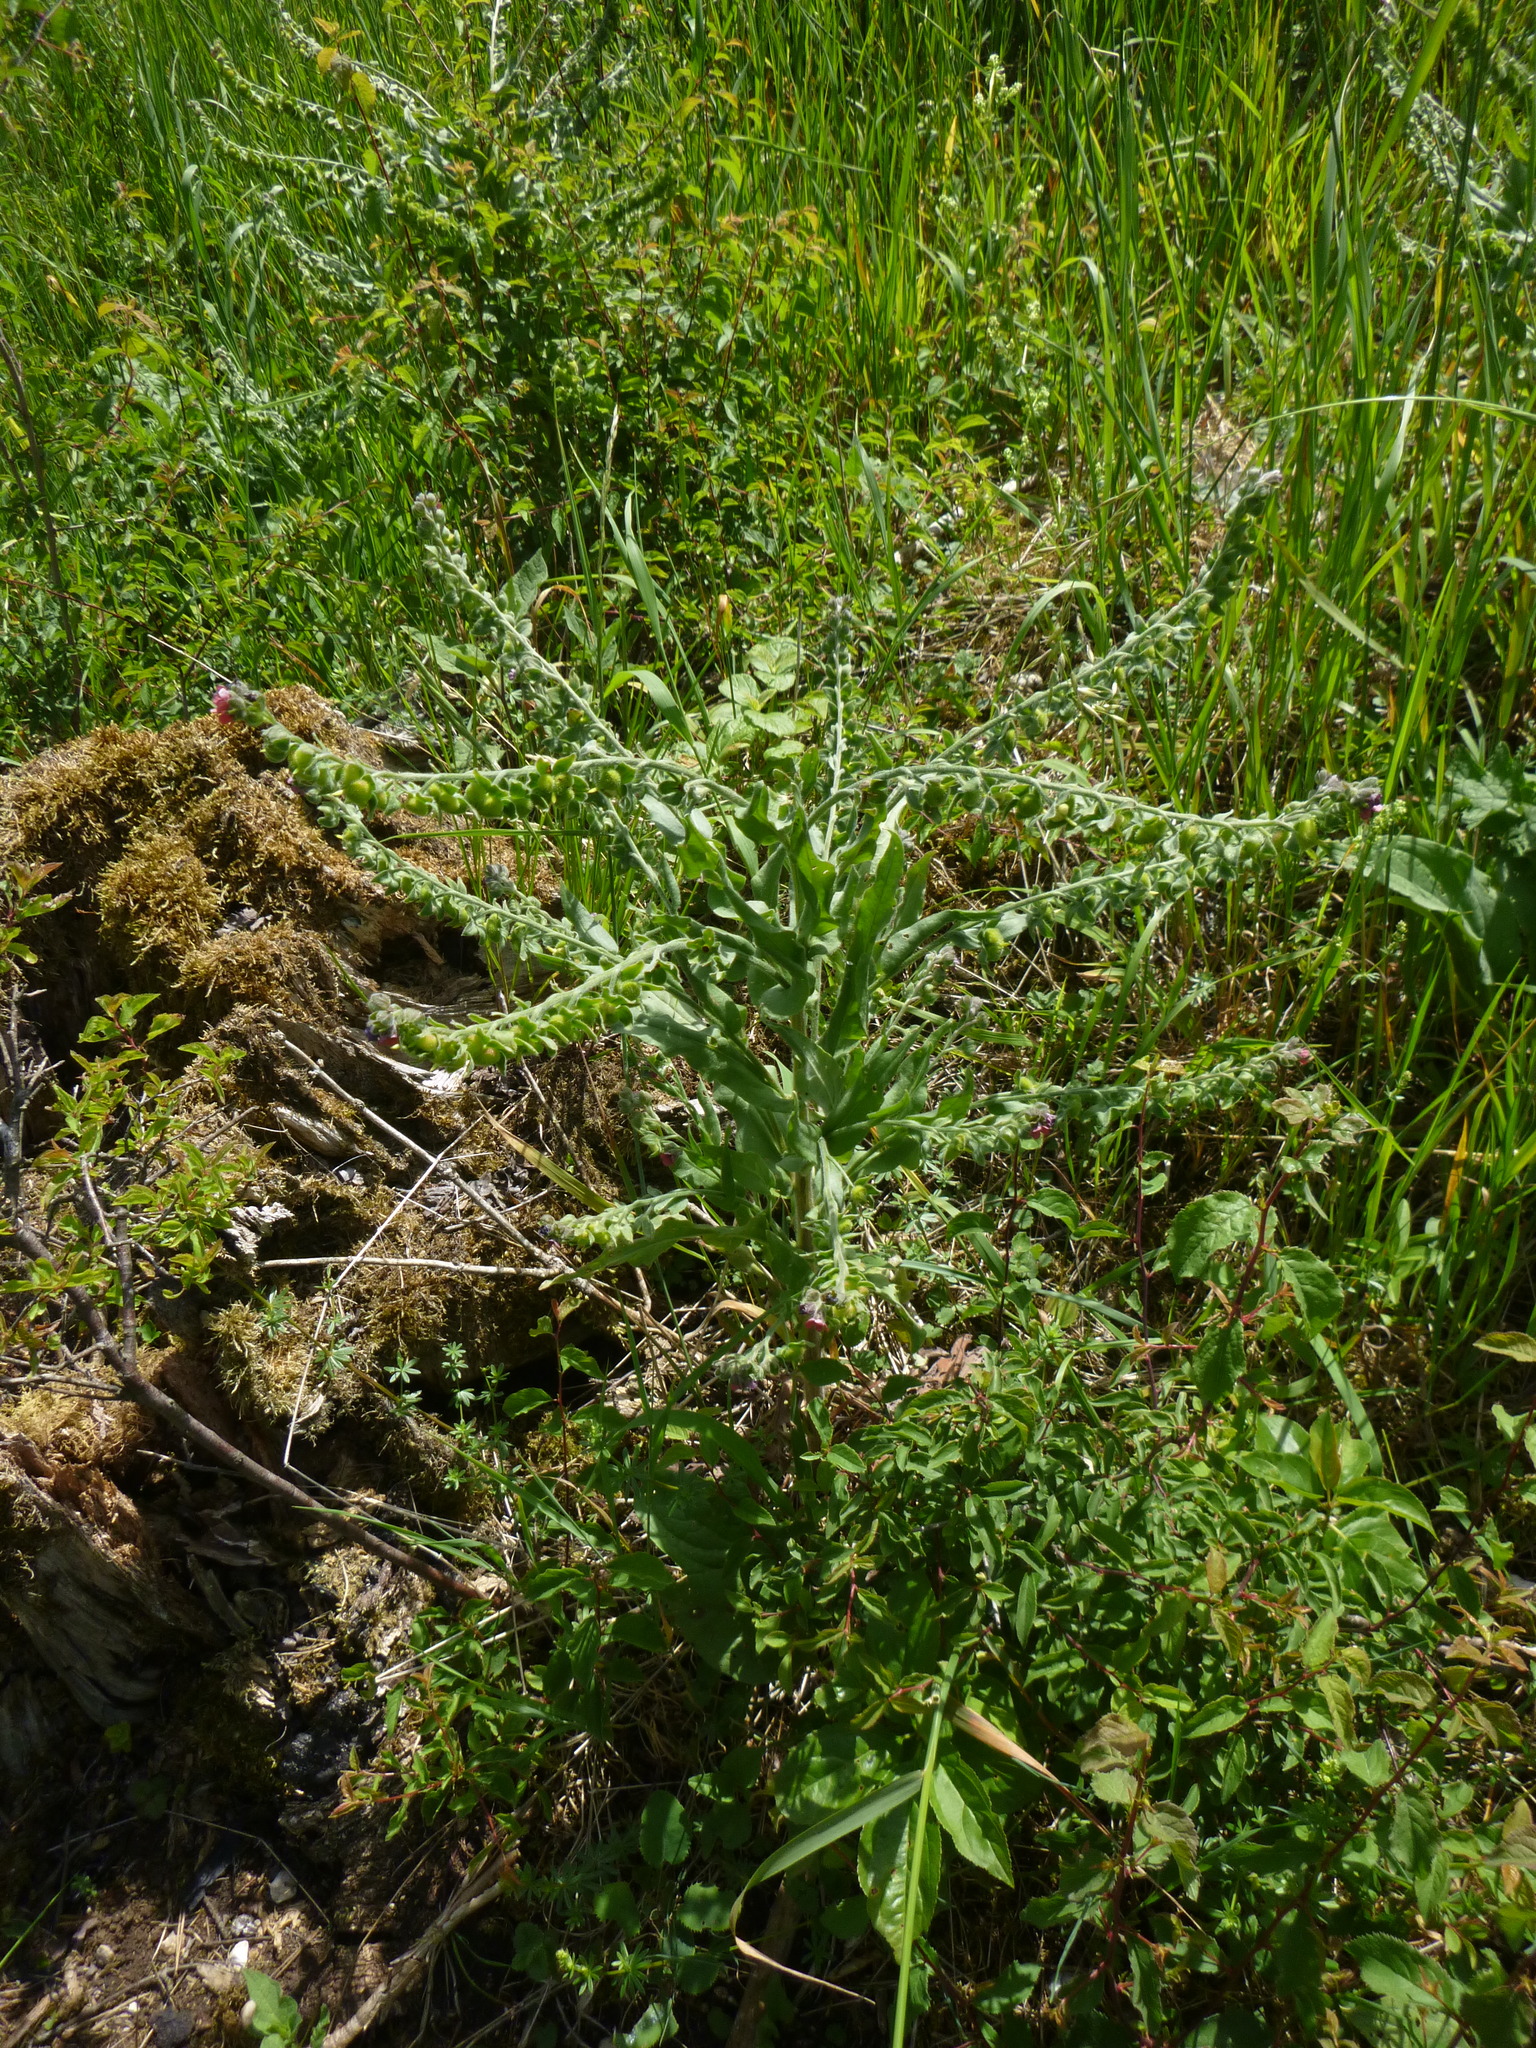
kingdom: Plantae
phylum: Tracheophyta
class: Magnoliopsida
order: Boraginales
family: Boraginaceae
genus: Cynoglossum
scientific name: Cynoglossum officinale
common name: Hound's-tongue
